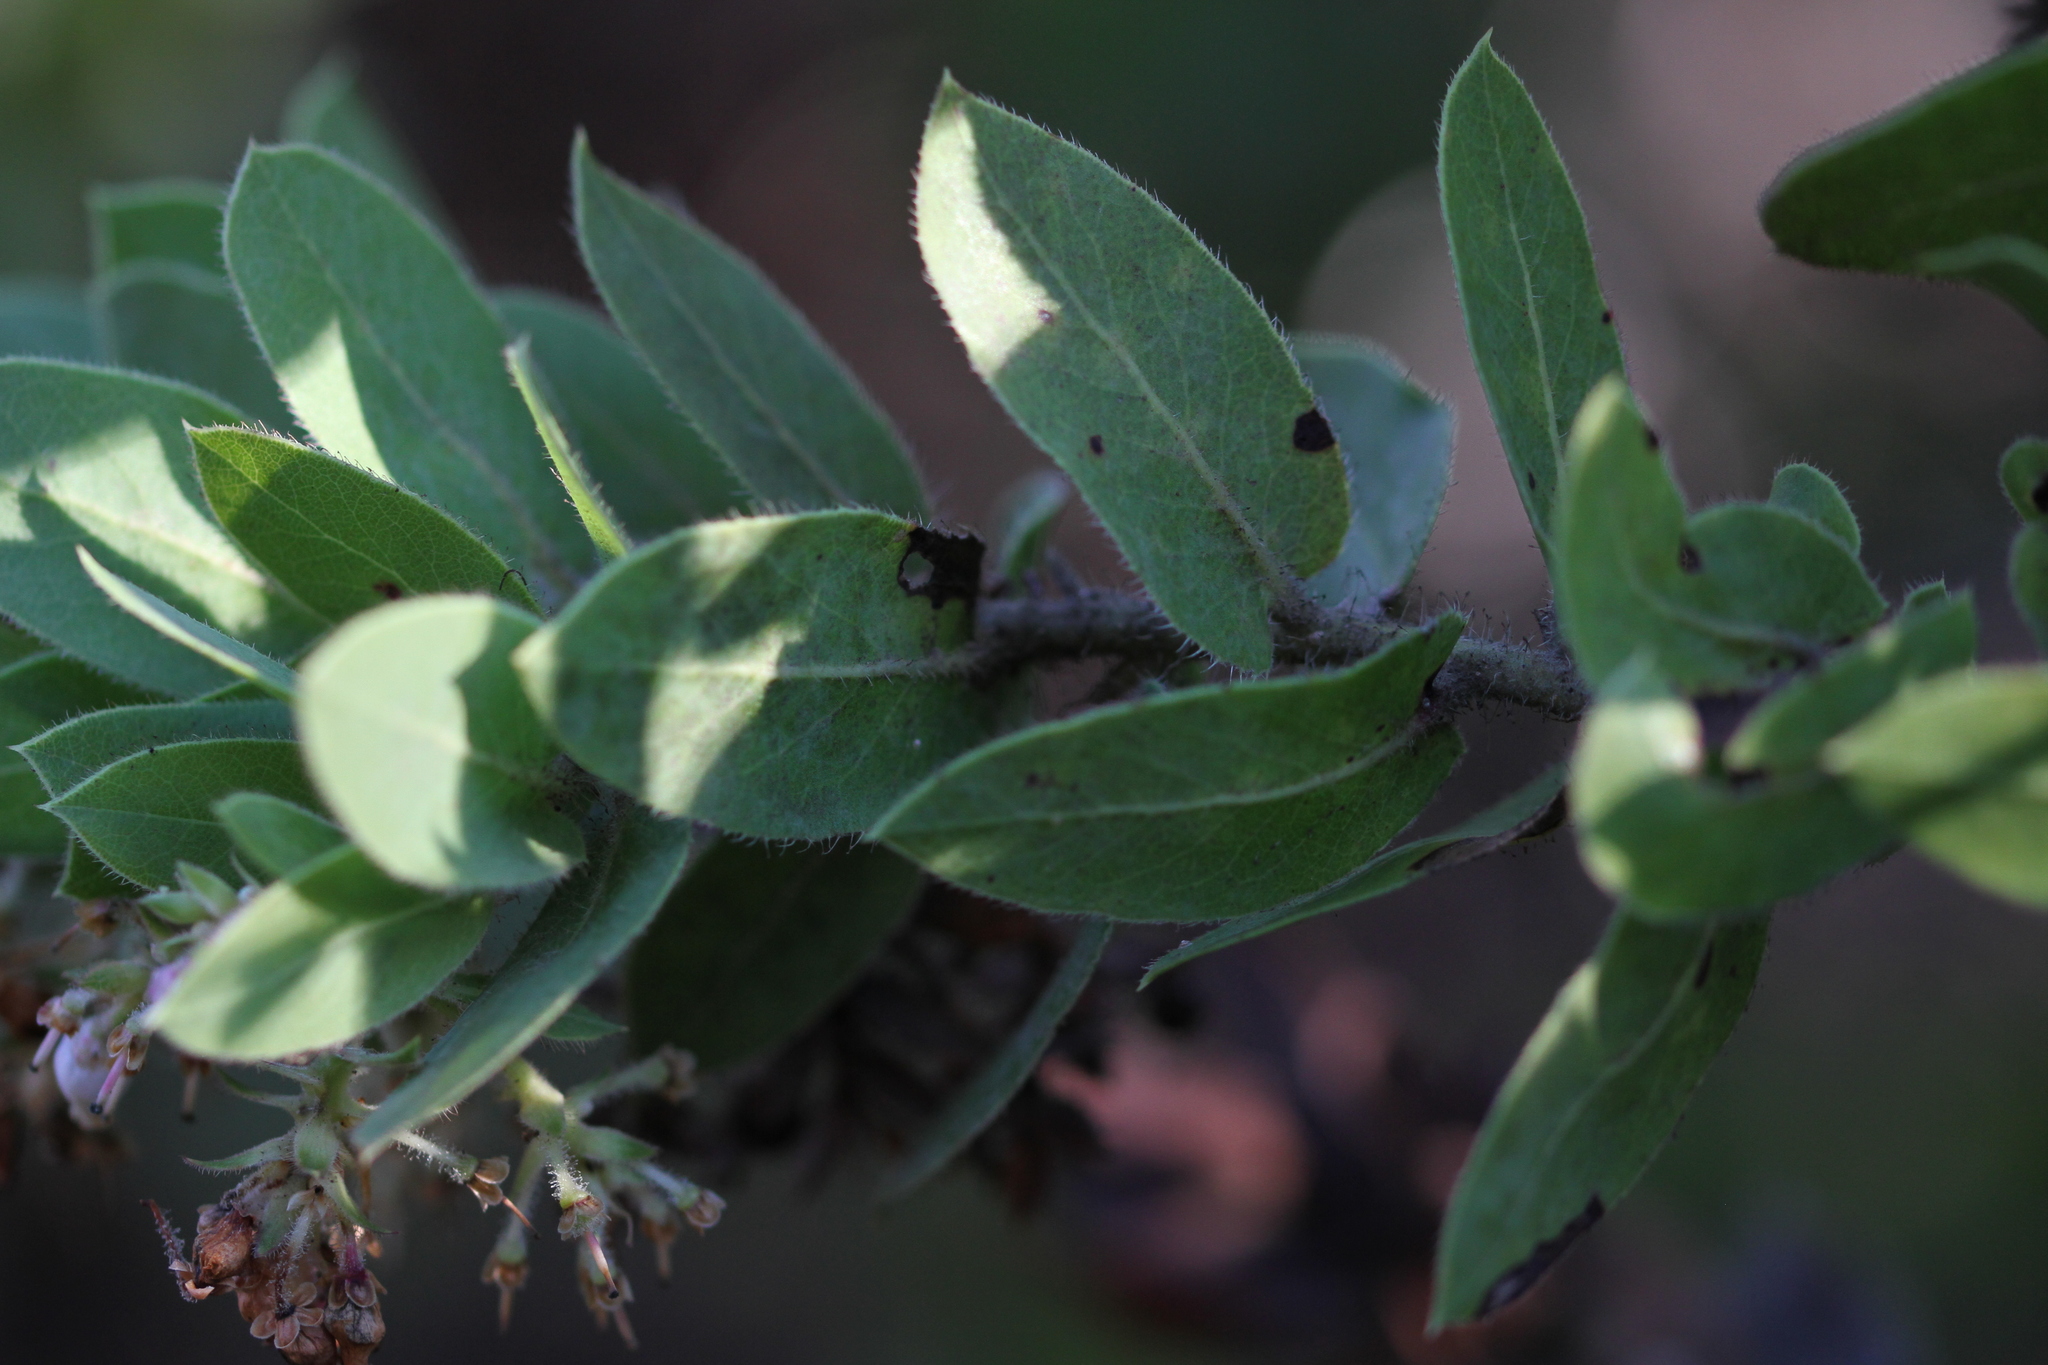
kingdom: Plantae
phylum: Tracheophyta
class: Magnoliopsida
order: Ericales
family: Ericaceae
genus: Arctostaphylos
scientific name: Arctostaphylos montaraensis
